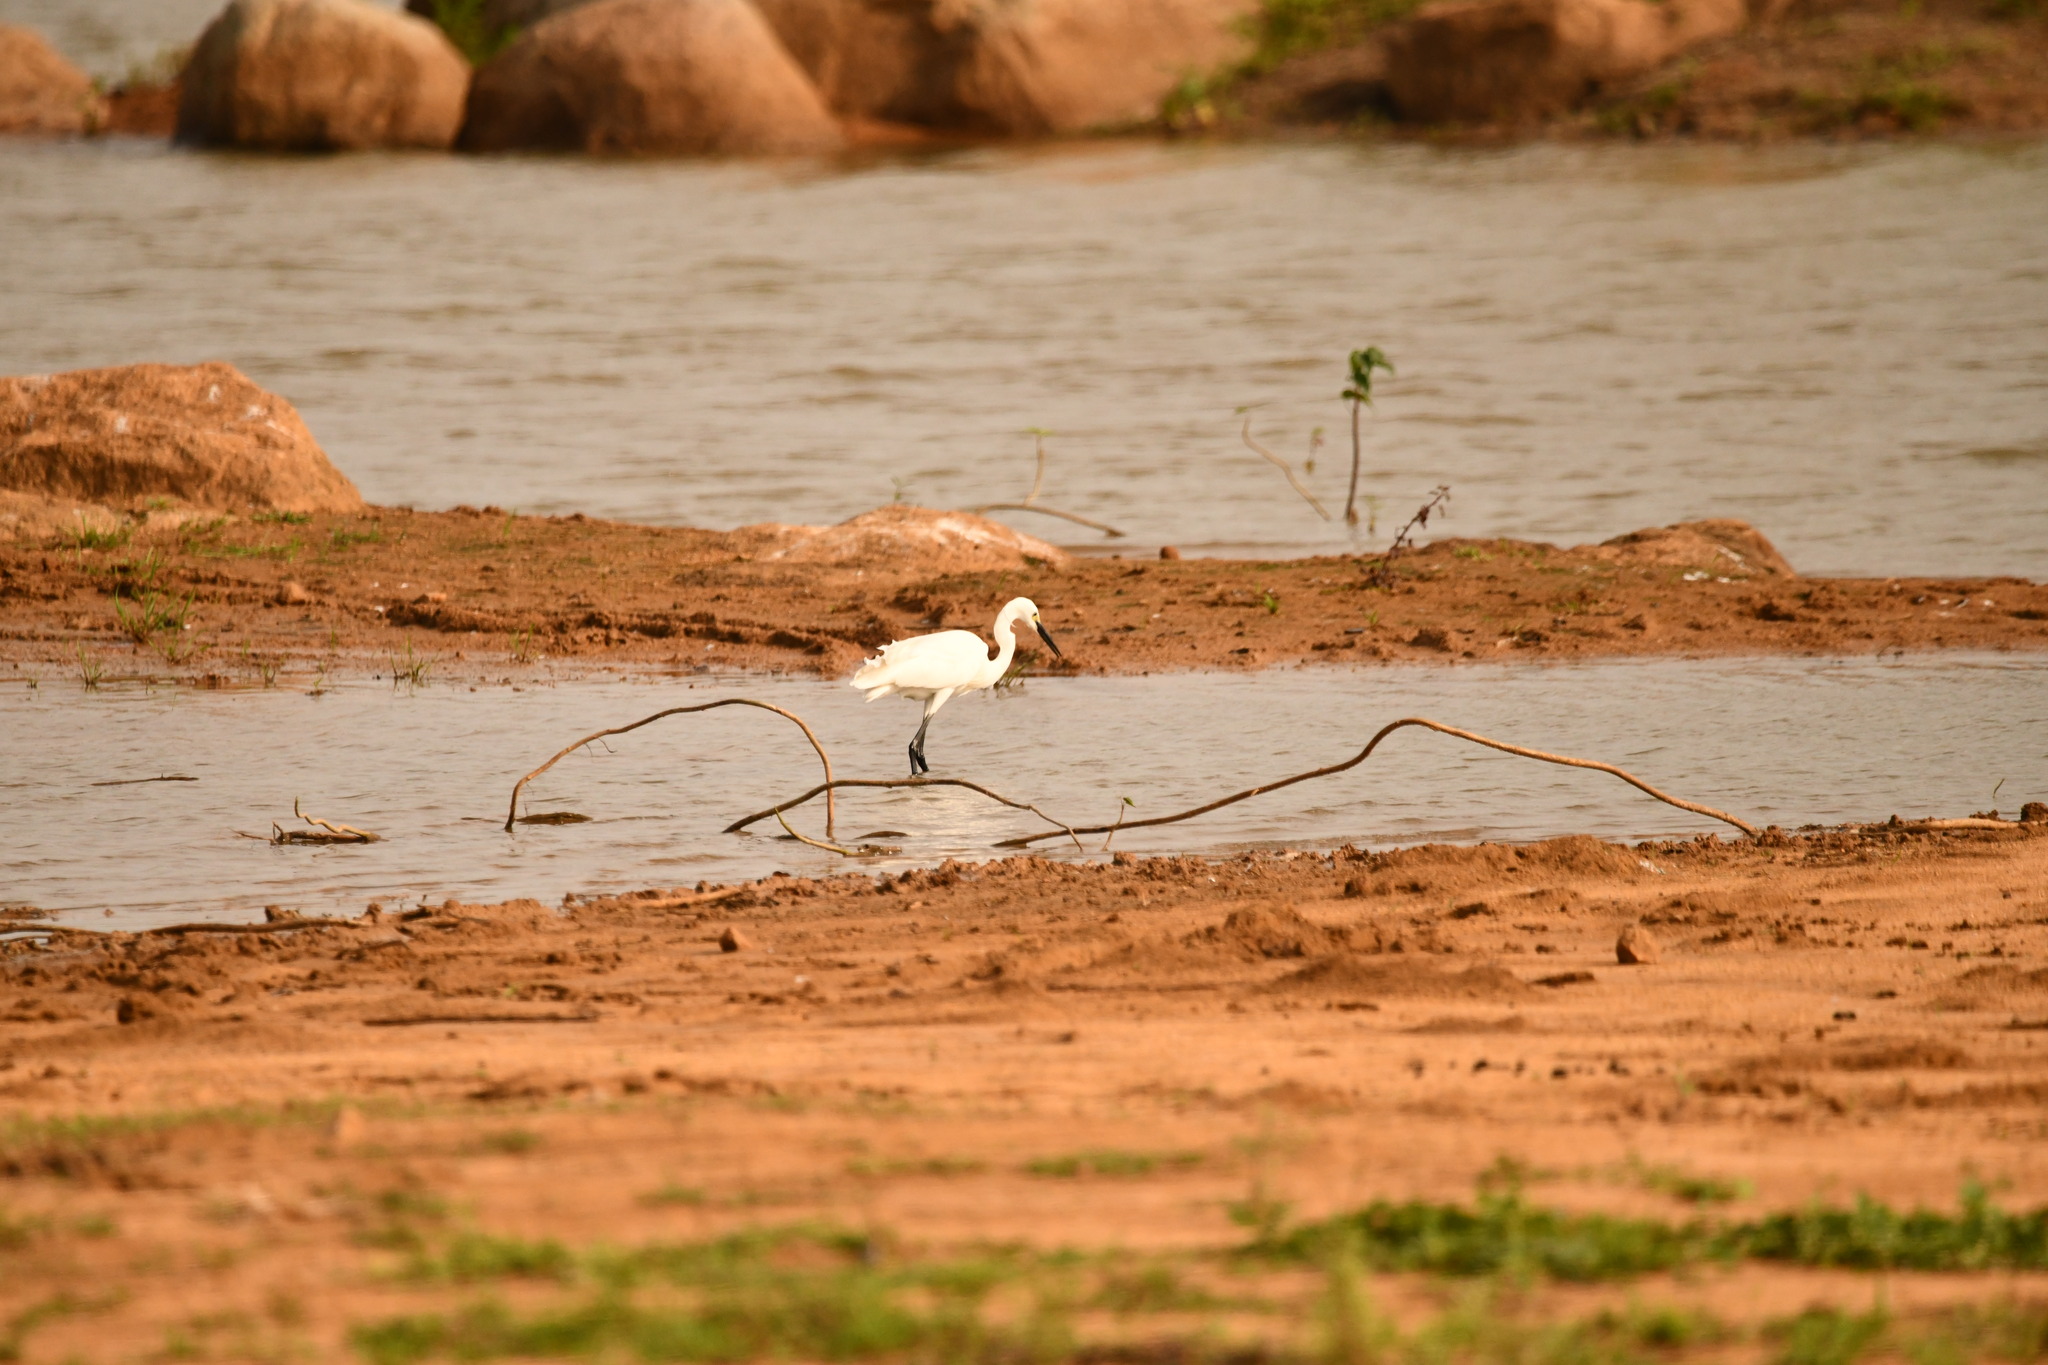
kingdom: Animalia
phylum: Chordata
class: Aves
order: Pelecaniformes
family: Ardeidae
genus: Egretta
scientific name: Egretta garzetta
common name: Little egret
